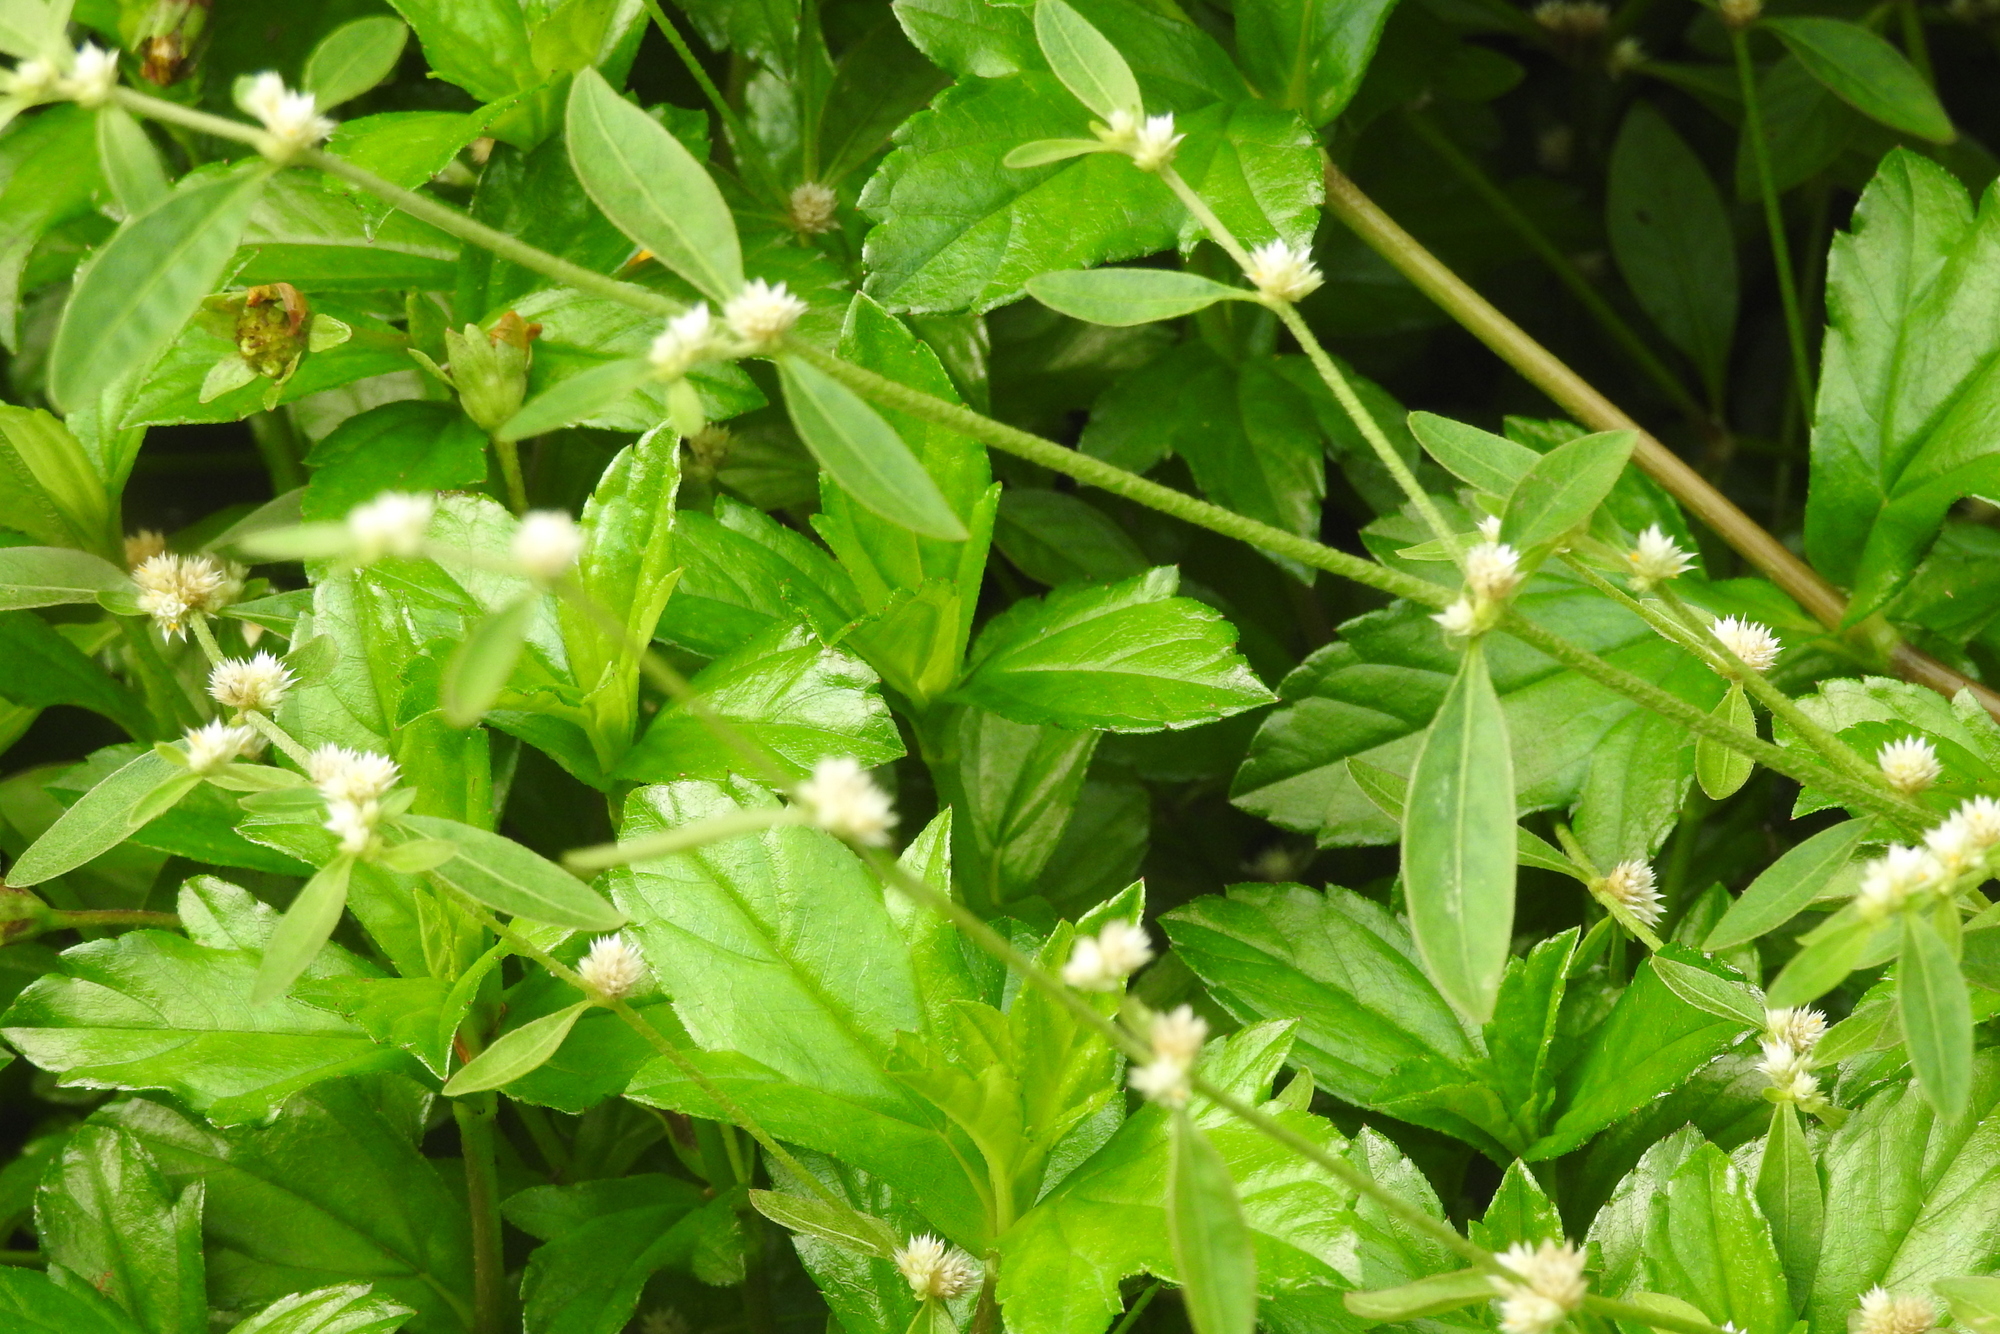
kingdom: Plantae
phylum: Tracheophyta
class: Magnoliopsida
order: Caryophyllales
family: Amaranthaceae
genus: Alternanthera
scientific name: Alternanthera sessilis
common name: Sessile joyweed
